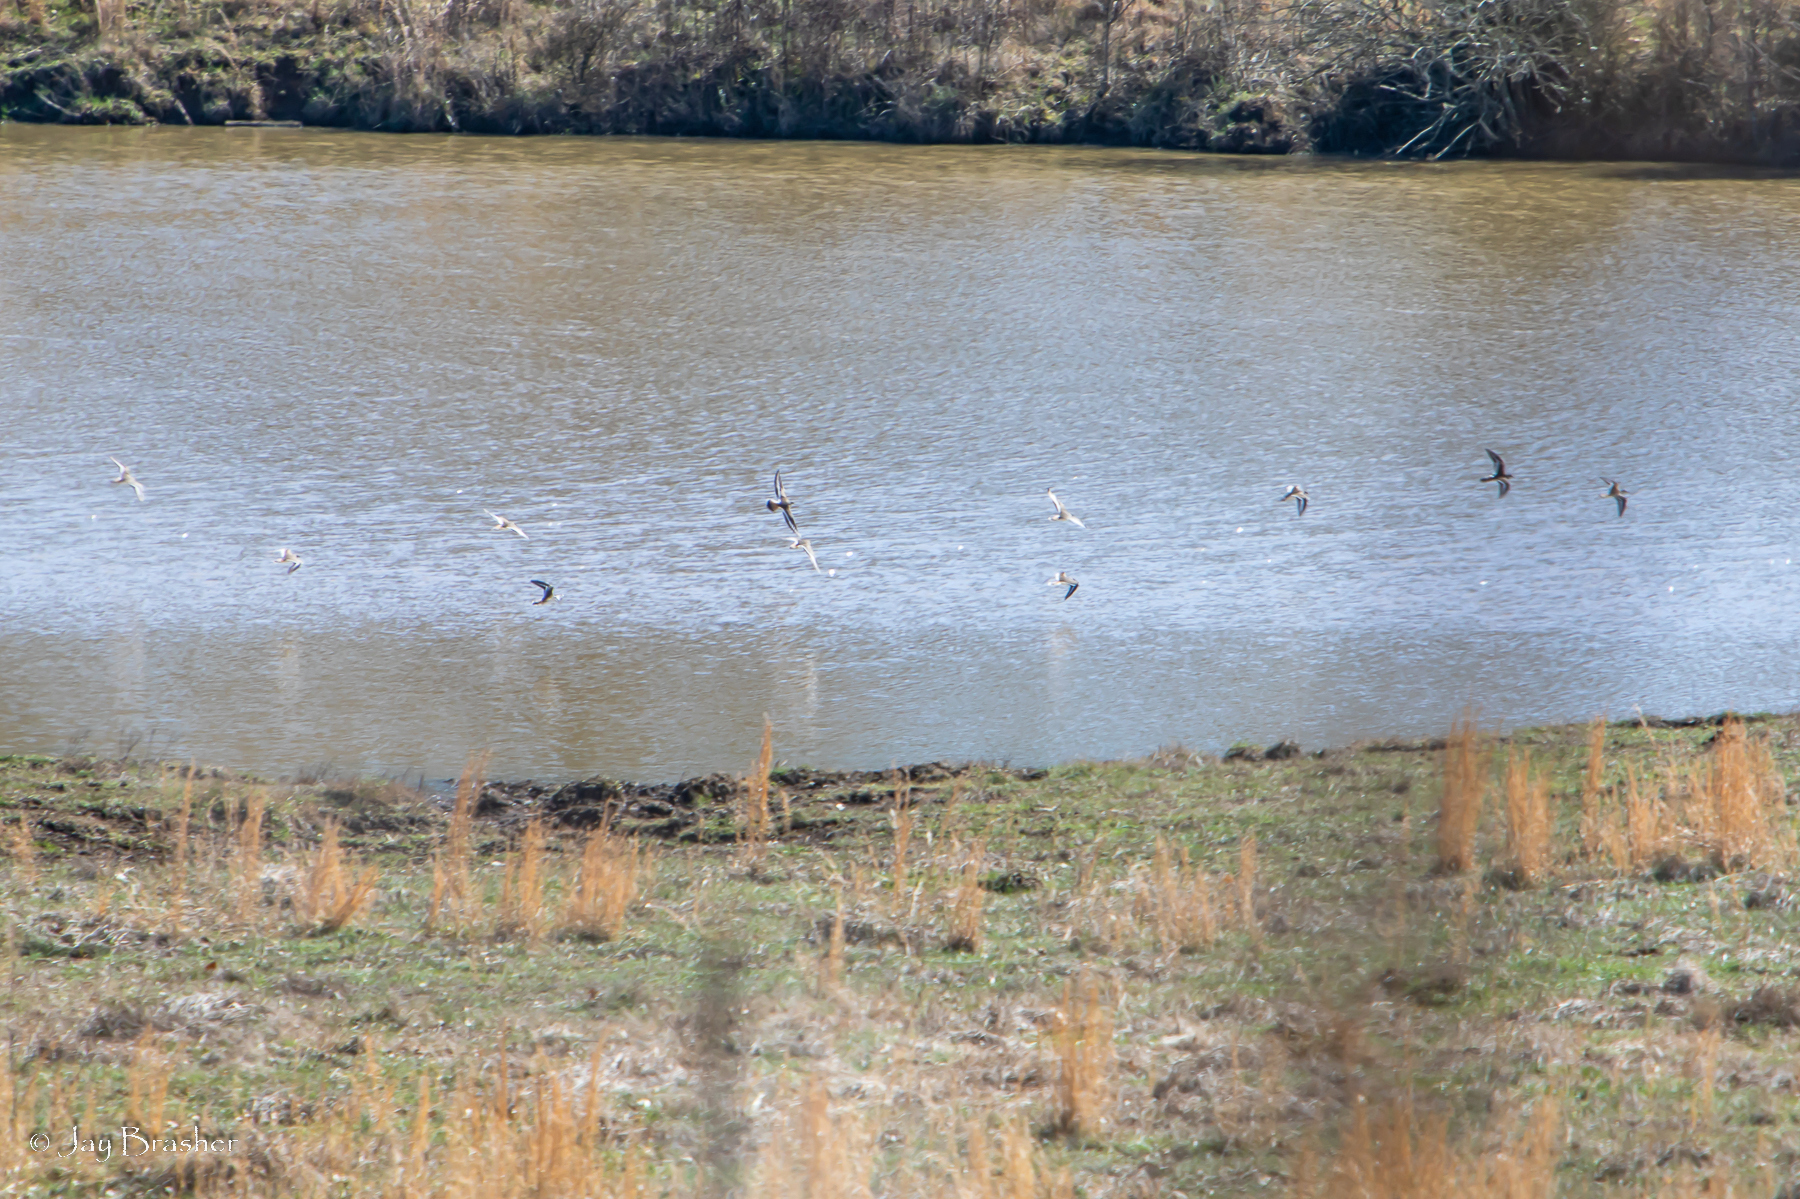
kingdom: Animalia
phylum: Chordata
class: Aves
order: Charadriiformes
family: Charadriidae
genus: Charadrius
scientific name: Charadrius vociferus
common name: Killdeer
